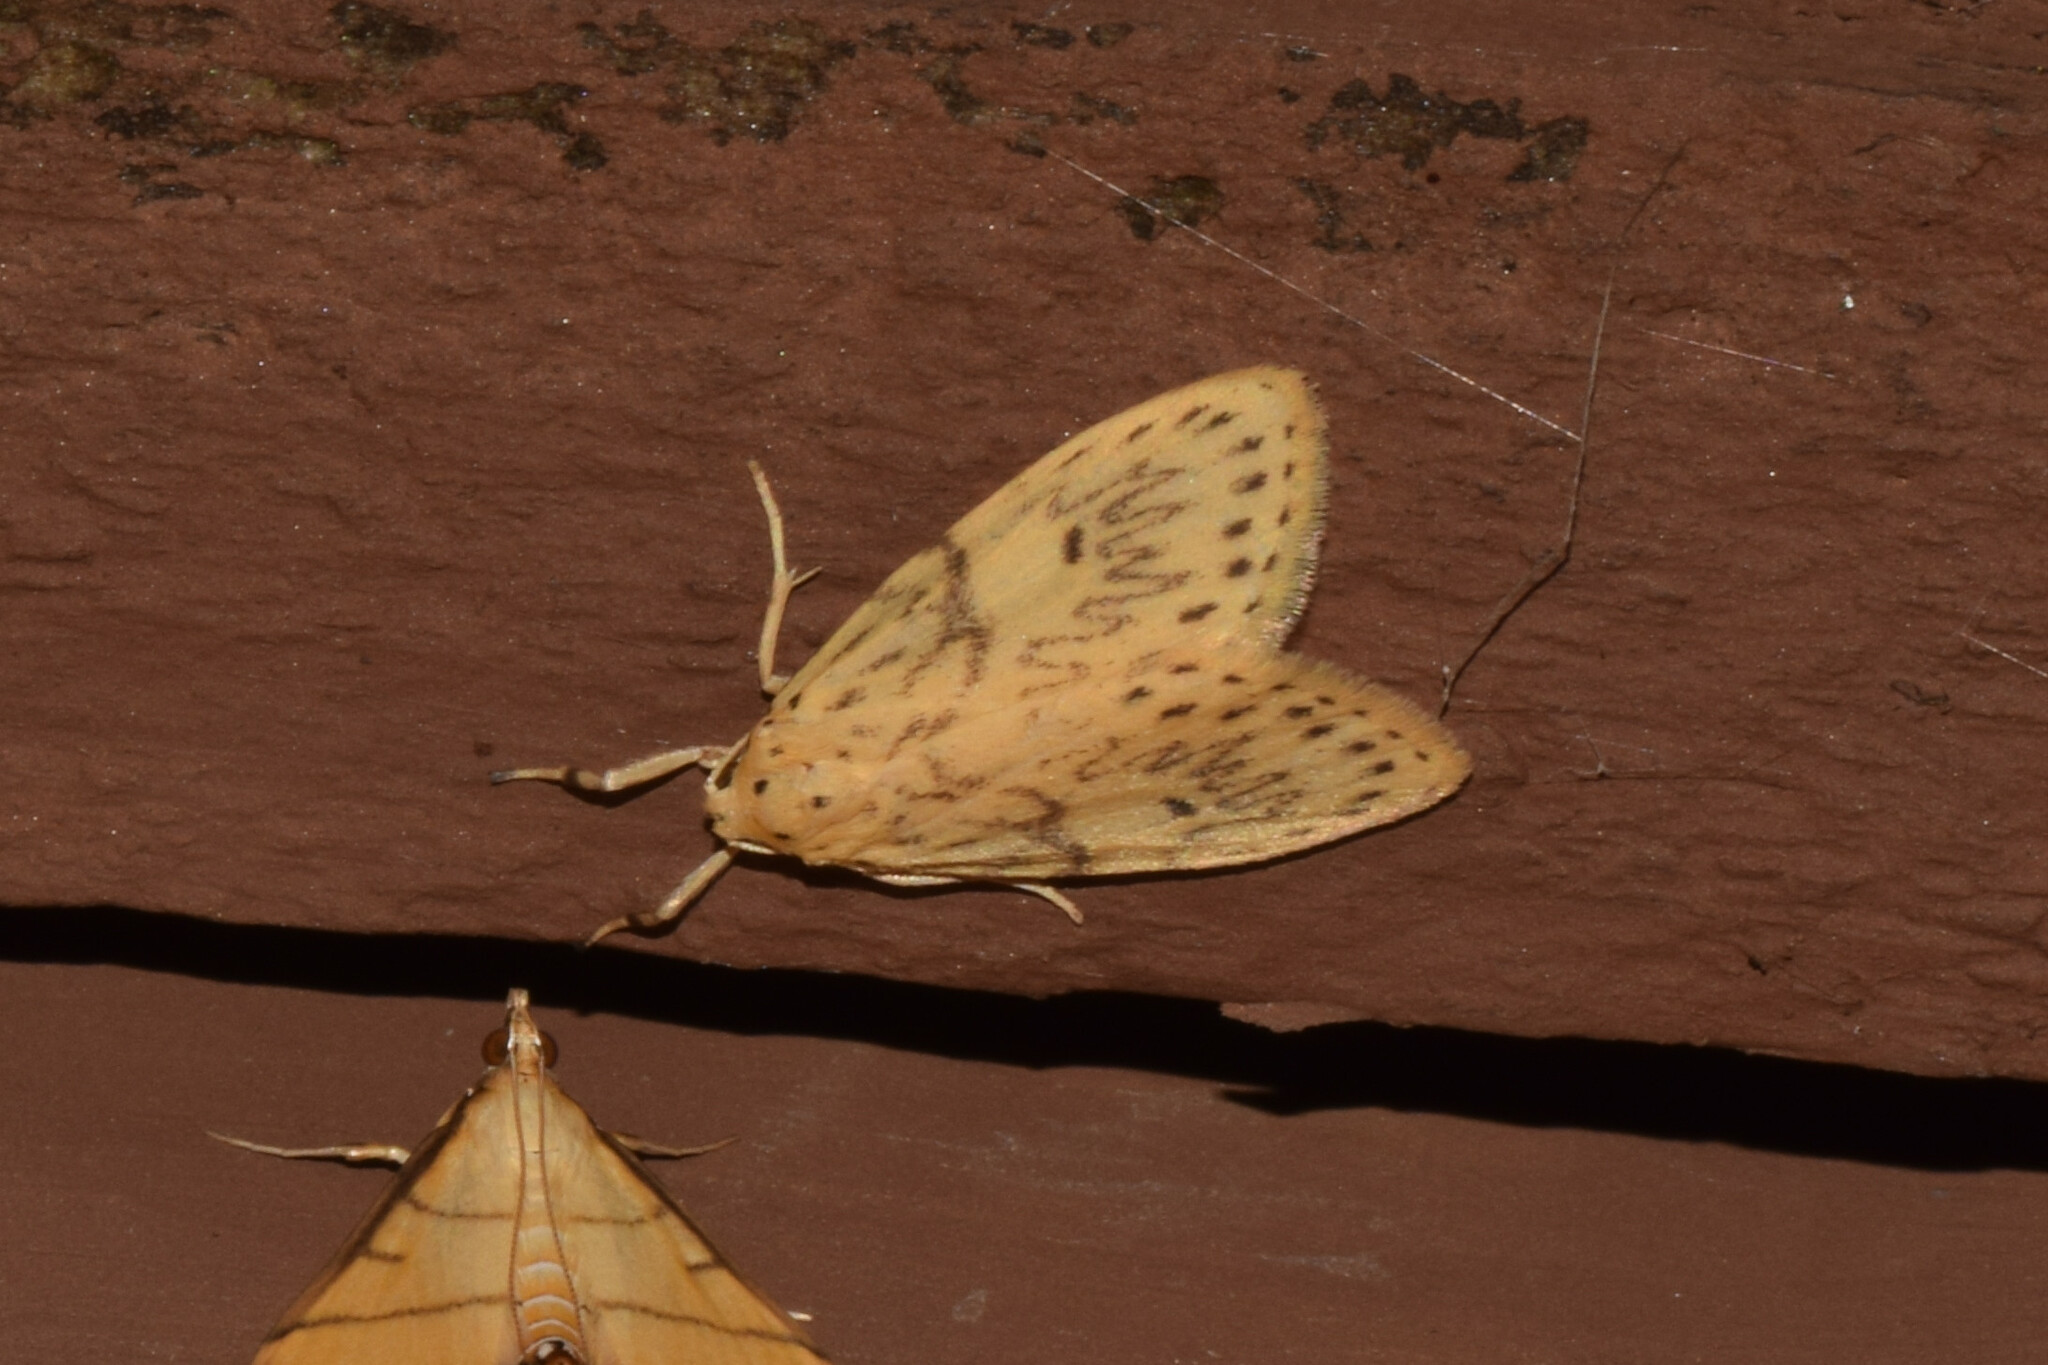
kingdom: Animalia
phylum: Arthropoda
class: Insecta
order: Lepidoptera
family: Erebidae
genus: Pseudobarsine
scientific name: Pseudobarsine bombdilensis
